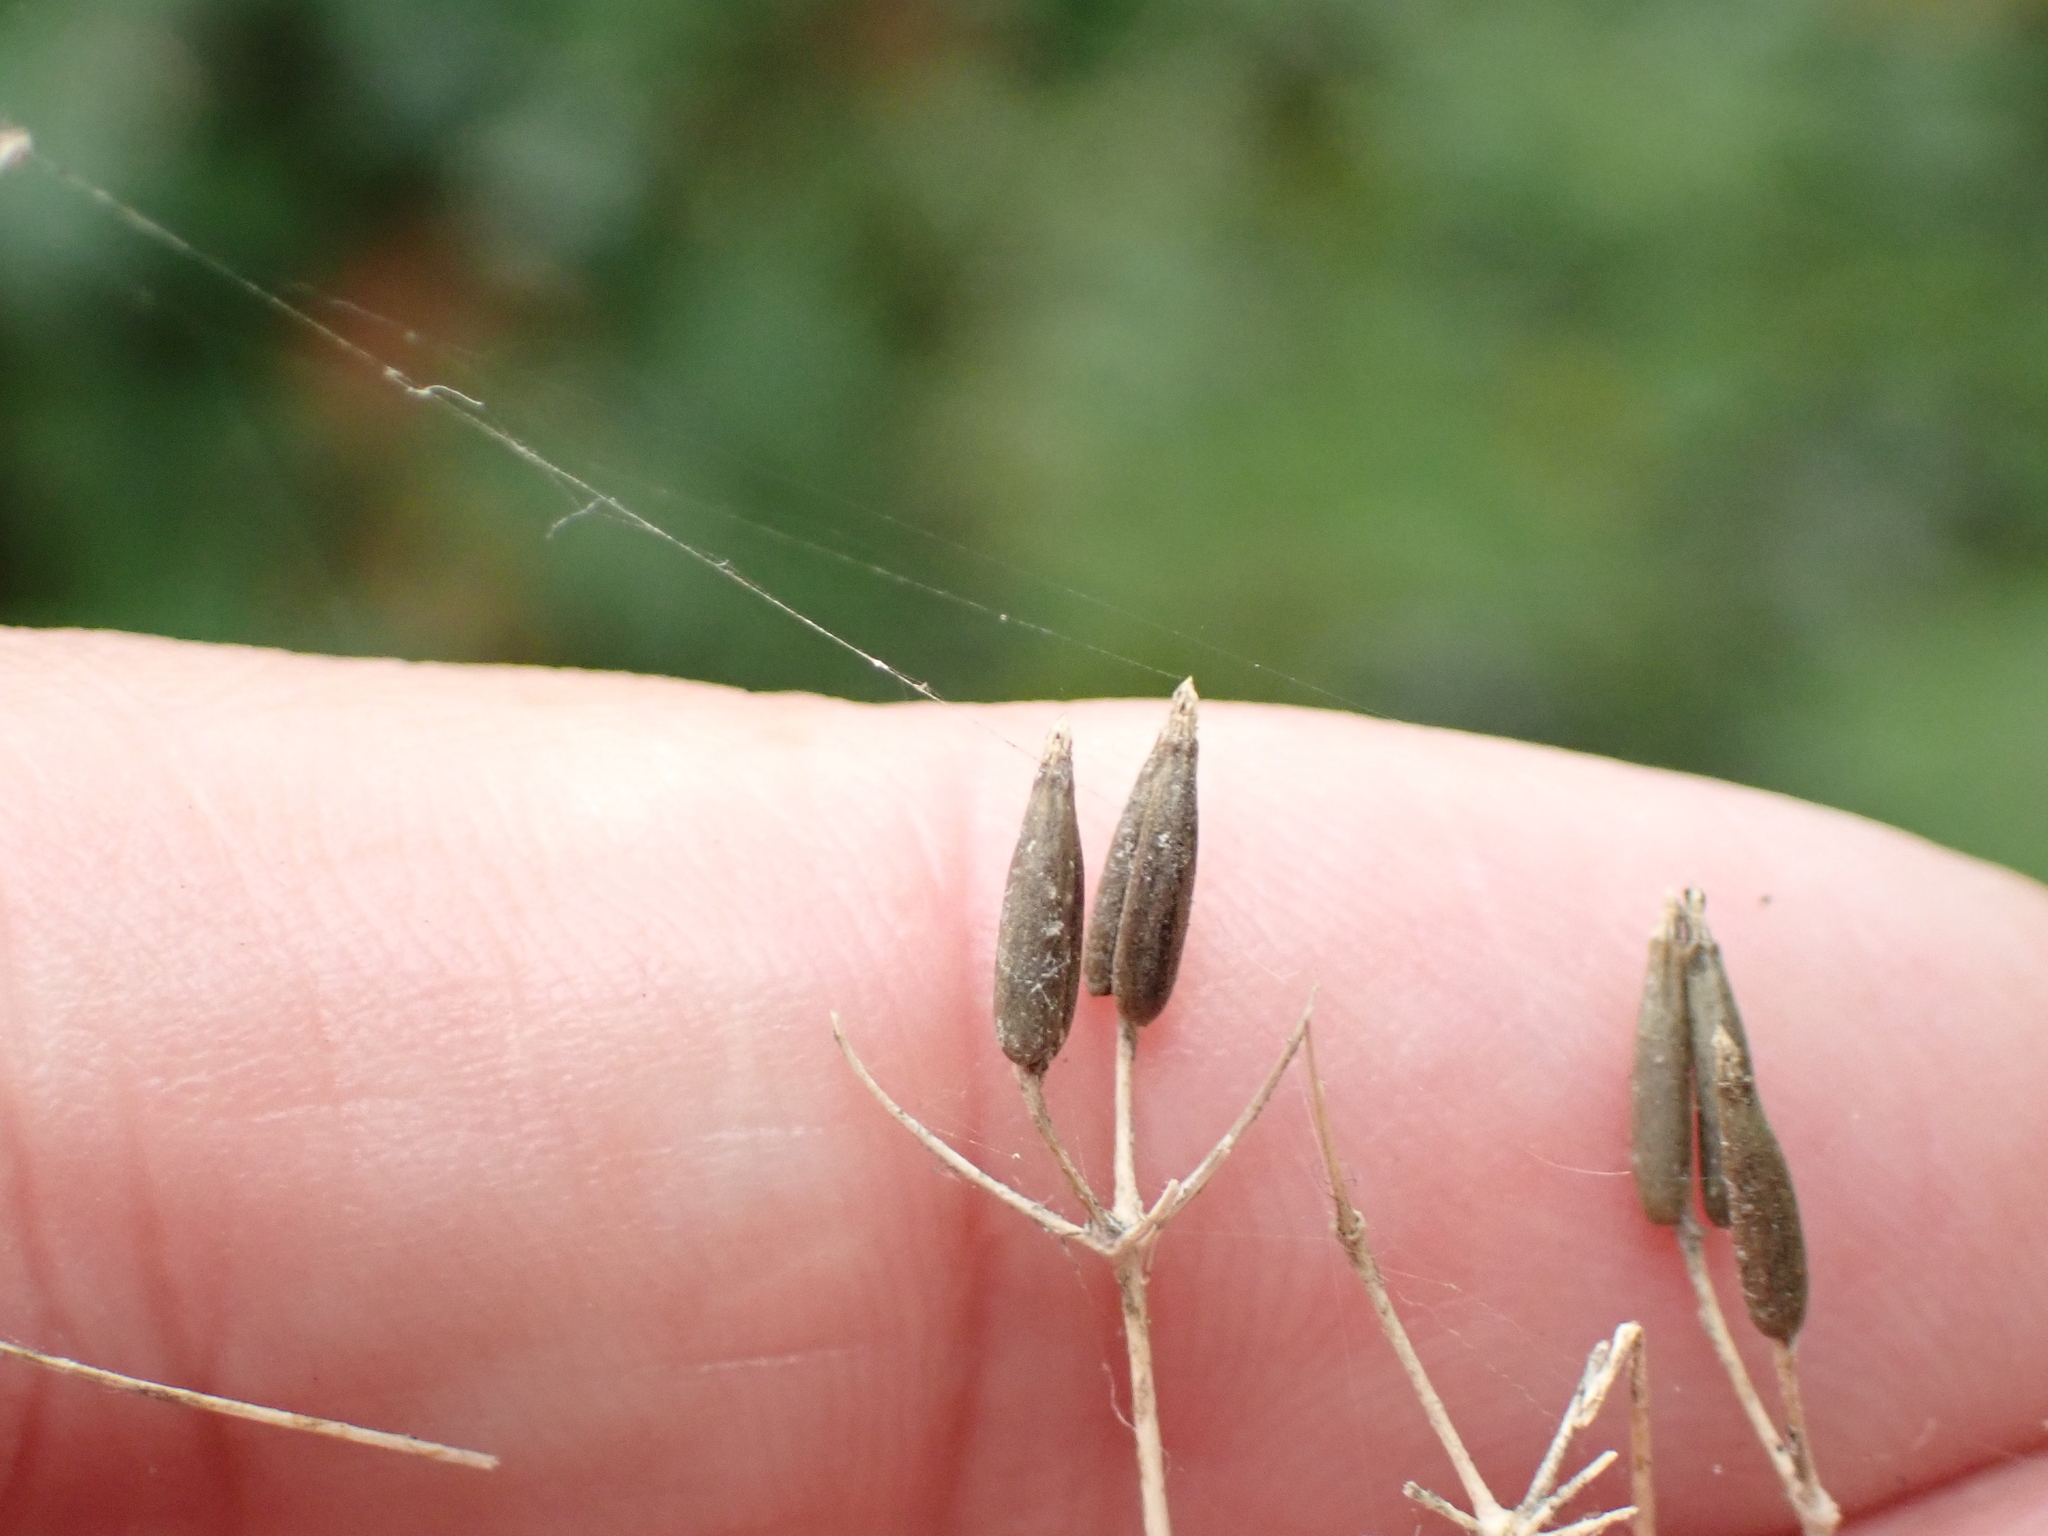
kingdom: Plantae
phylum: Tracheophyta
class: Magnoliopsida
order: Apiales
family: Apiaceae
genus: Anthriscus
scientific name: Anthriscus sylvestris
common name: Cow parsley
